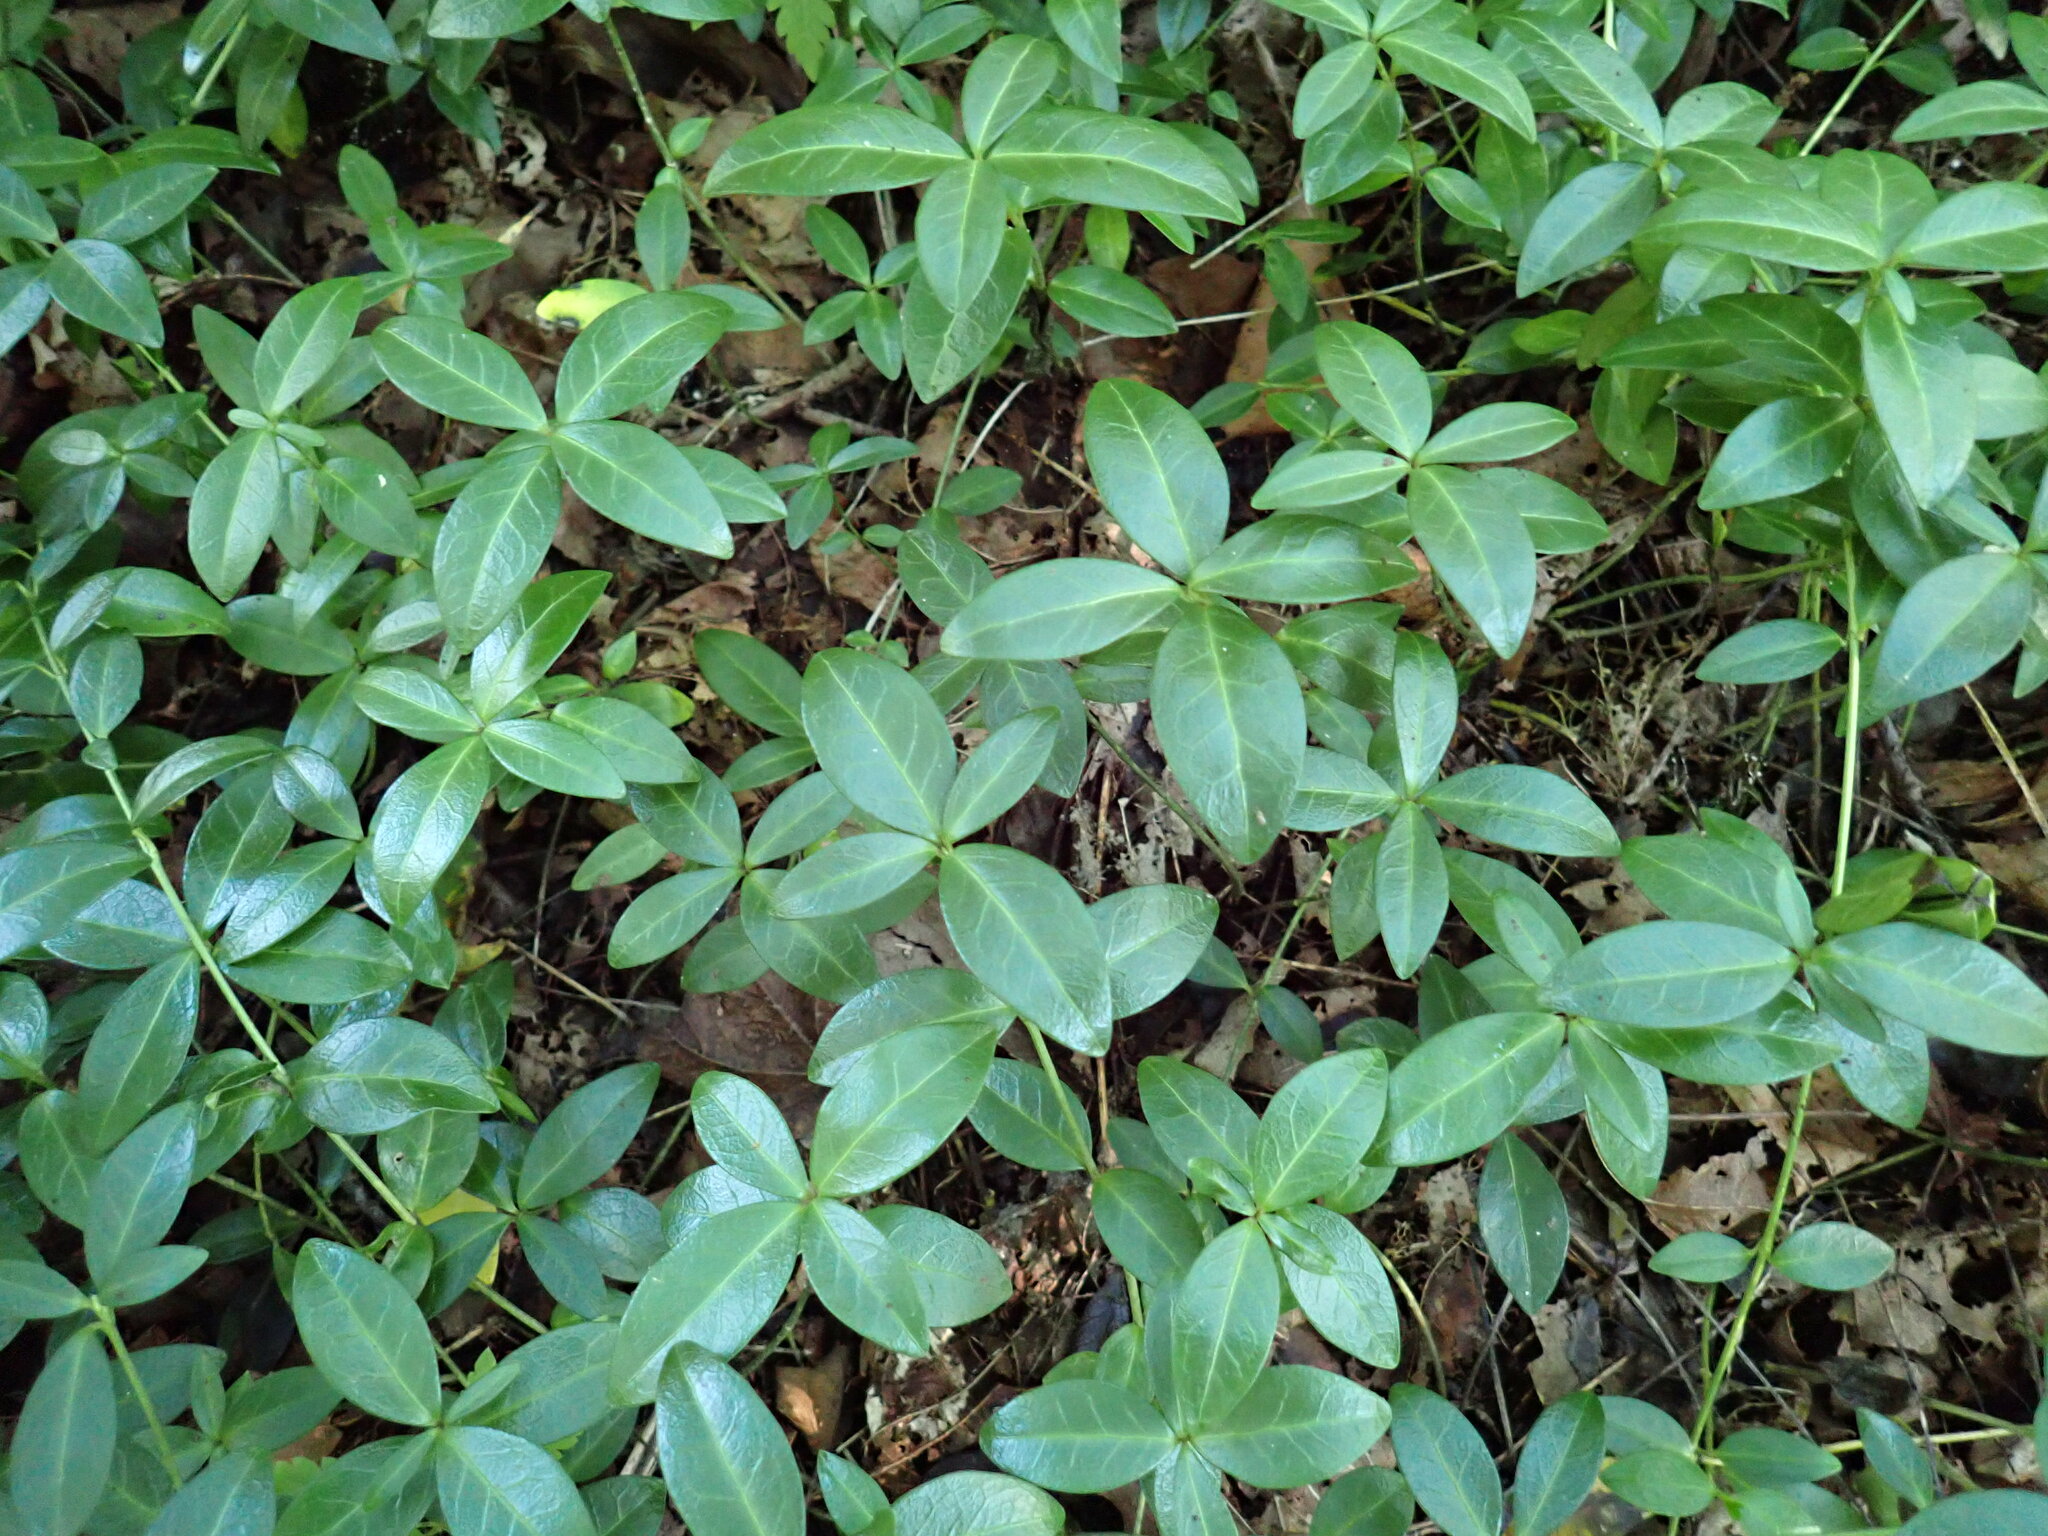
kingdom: Plantae
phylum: Tracheophyta
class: Magnoliopsida
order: Gentianales
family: Apocynaceae
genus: Vinca
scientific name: Vinca minor
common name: Lesser periwinkle
